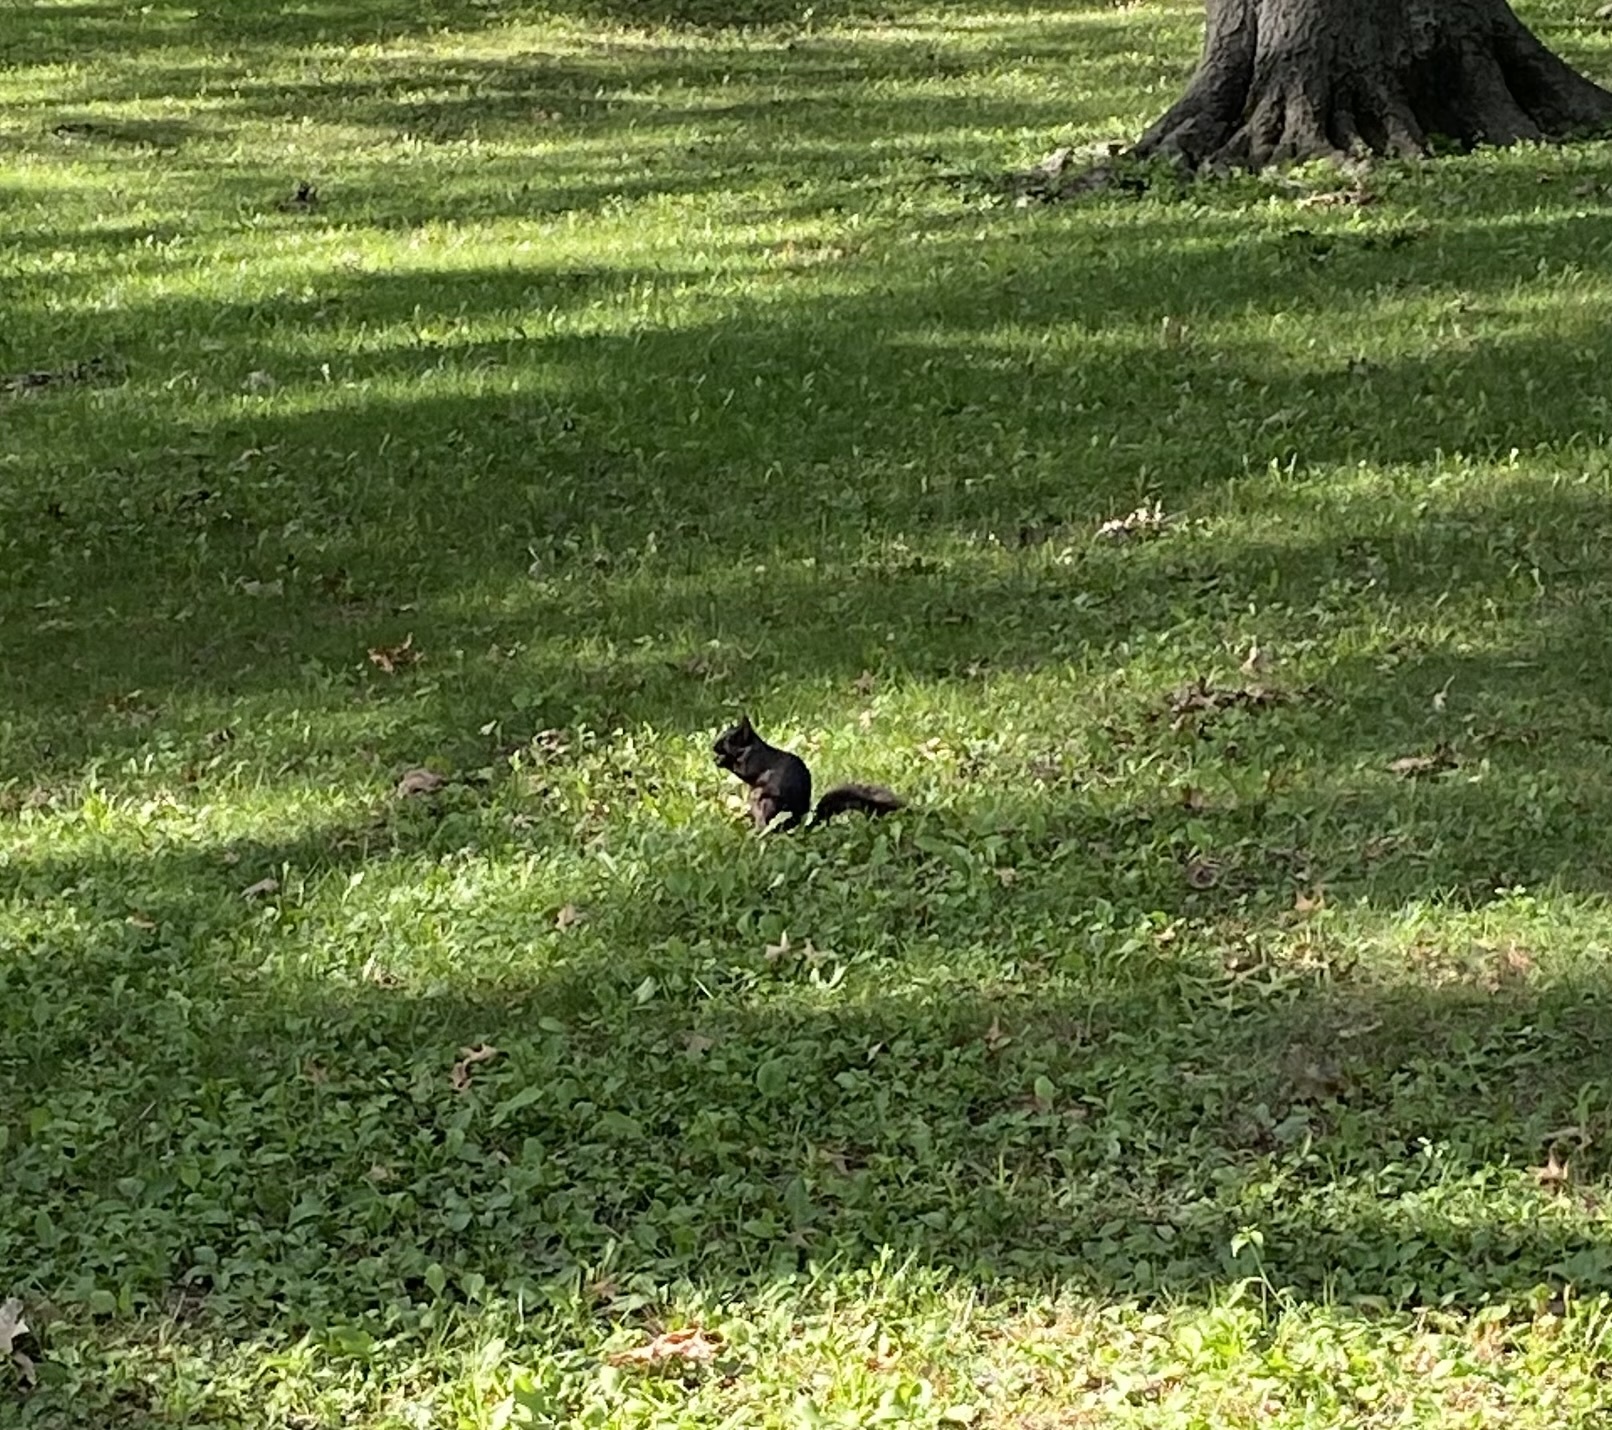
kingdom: Animalia
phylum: Chordata
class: Mammalia
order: Rodentia
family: Sciuridae
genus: Sciurus
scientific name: Sciurus carolinensis
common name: Eastern gray squirrel
